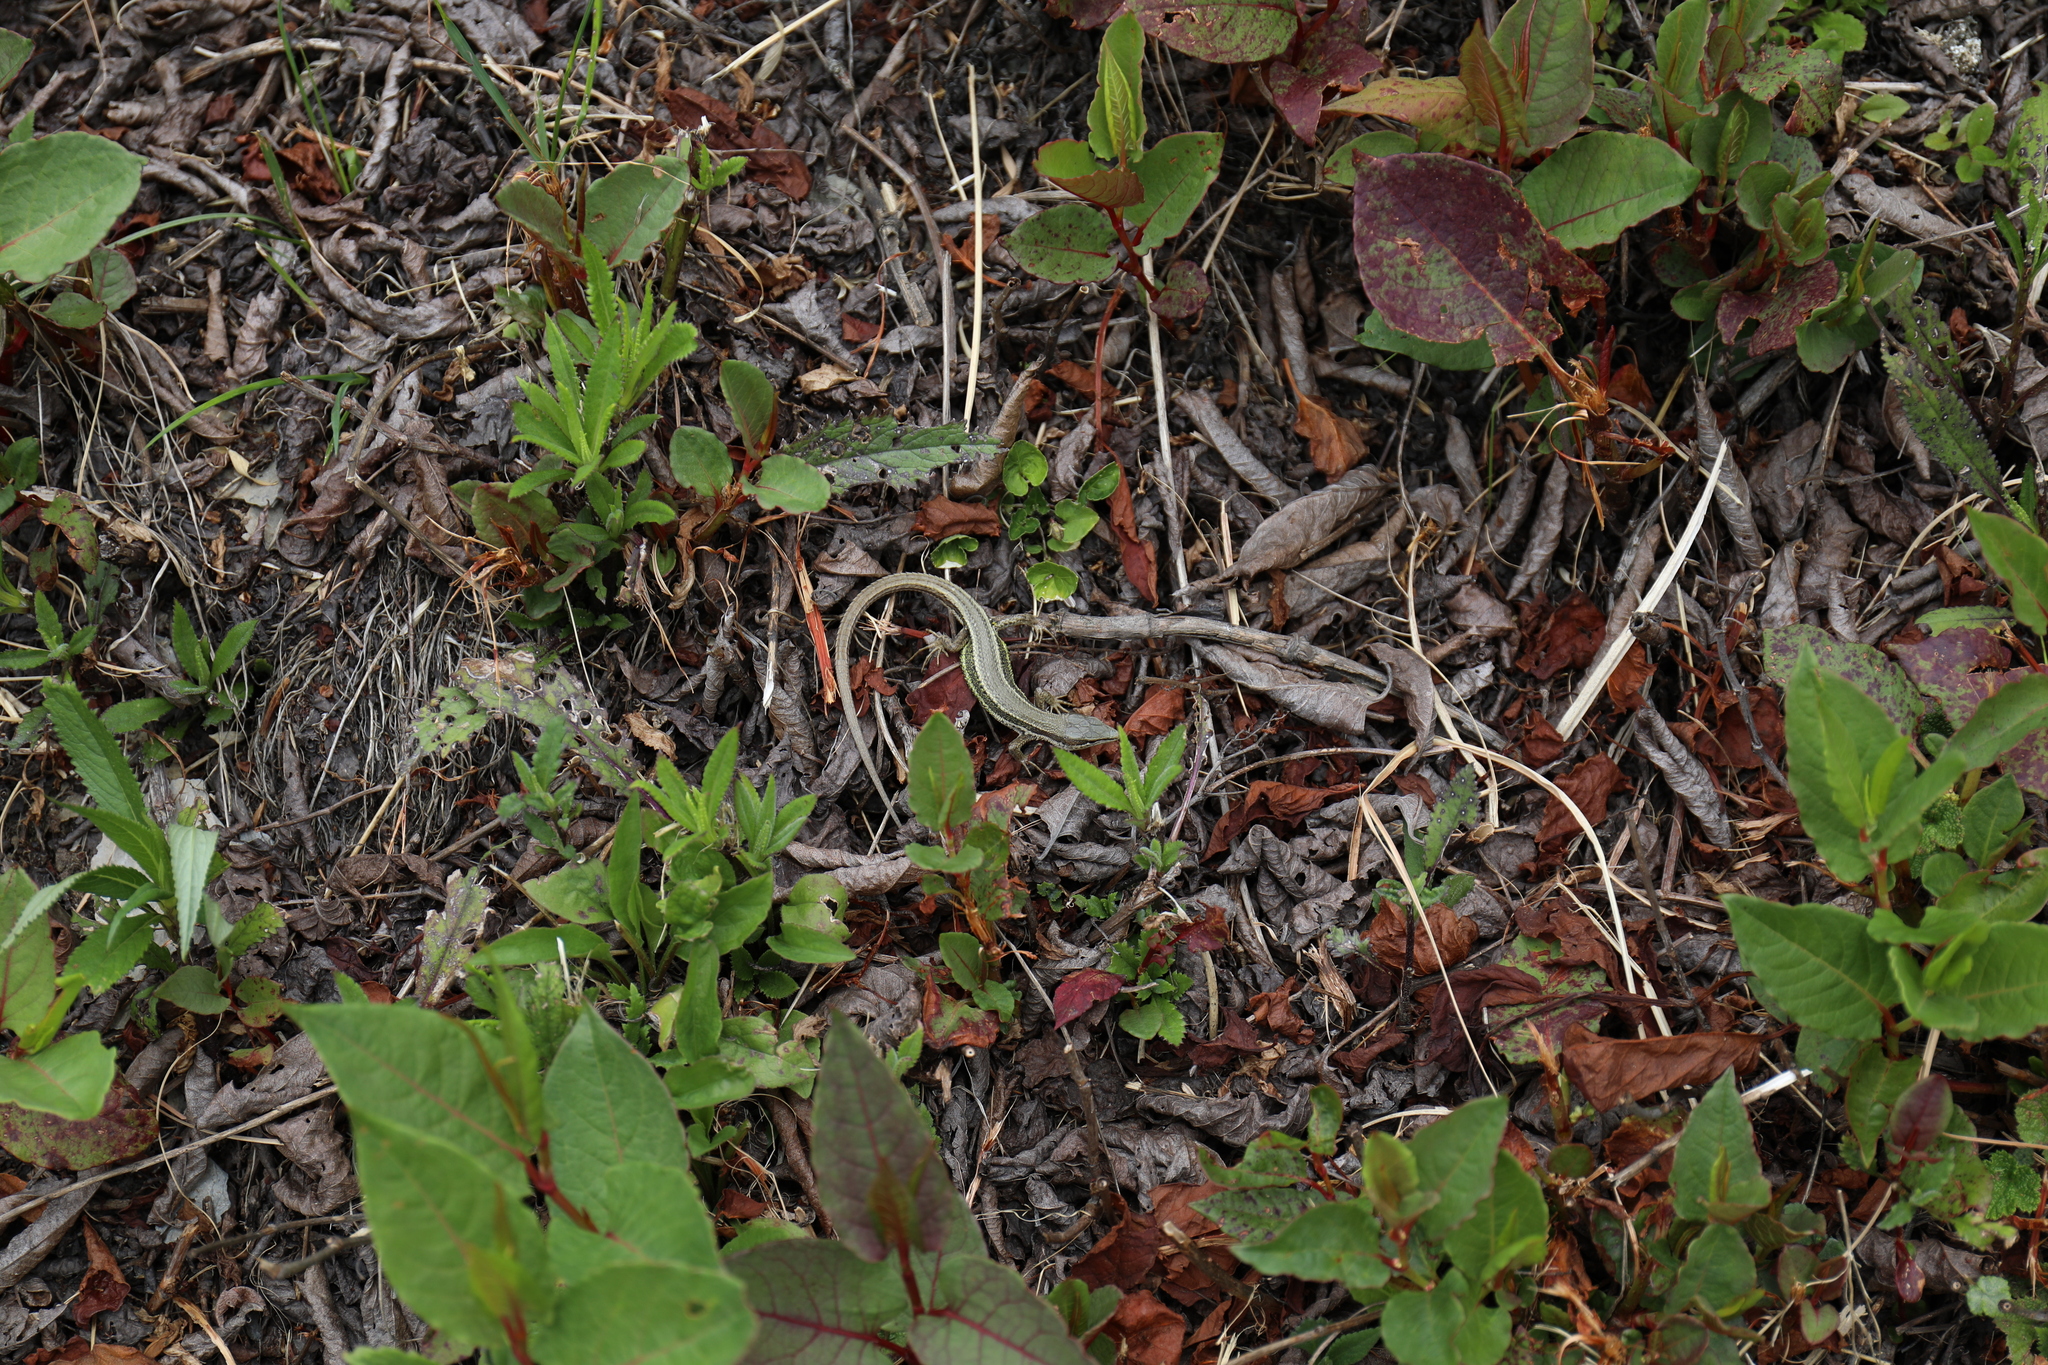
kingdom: Animalia
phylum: Chordata
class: Squamata
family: Lacertidae
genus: Takydromus
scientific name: Takydromus hsuehshanensis
